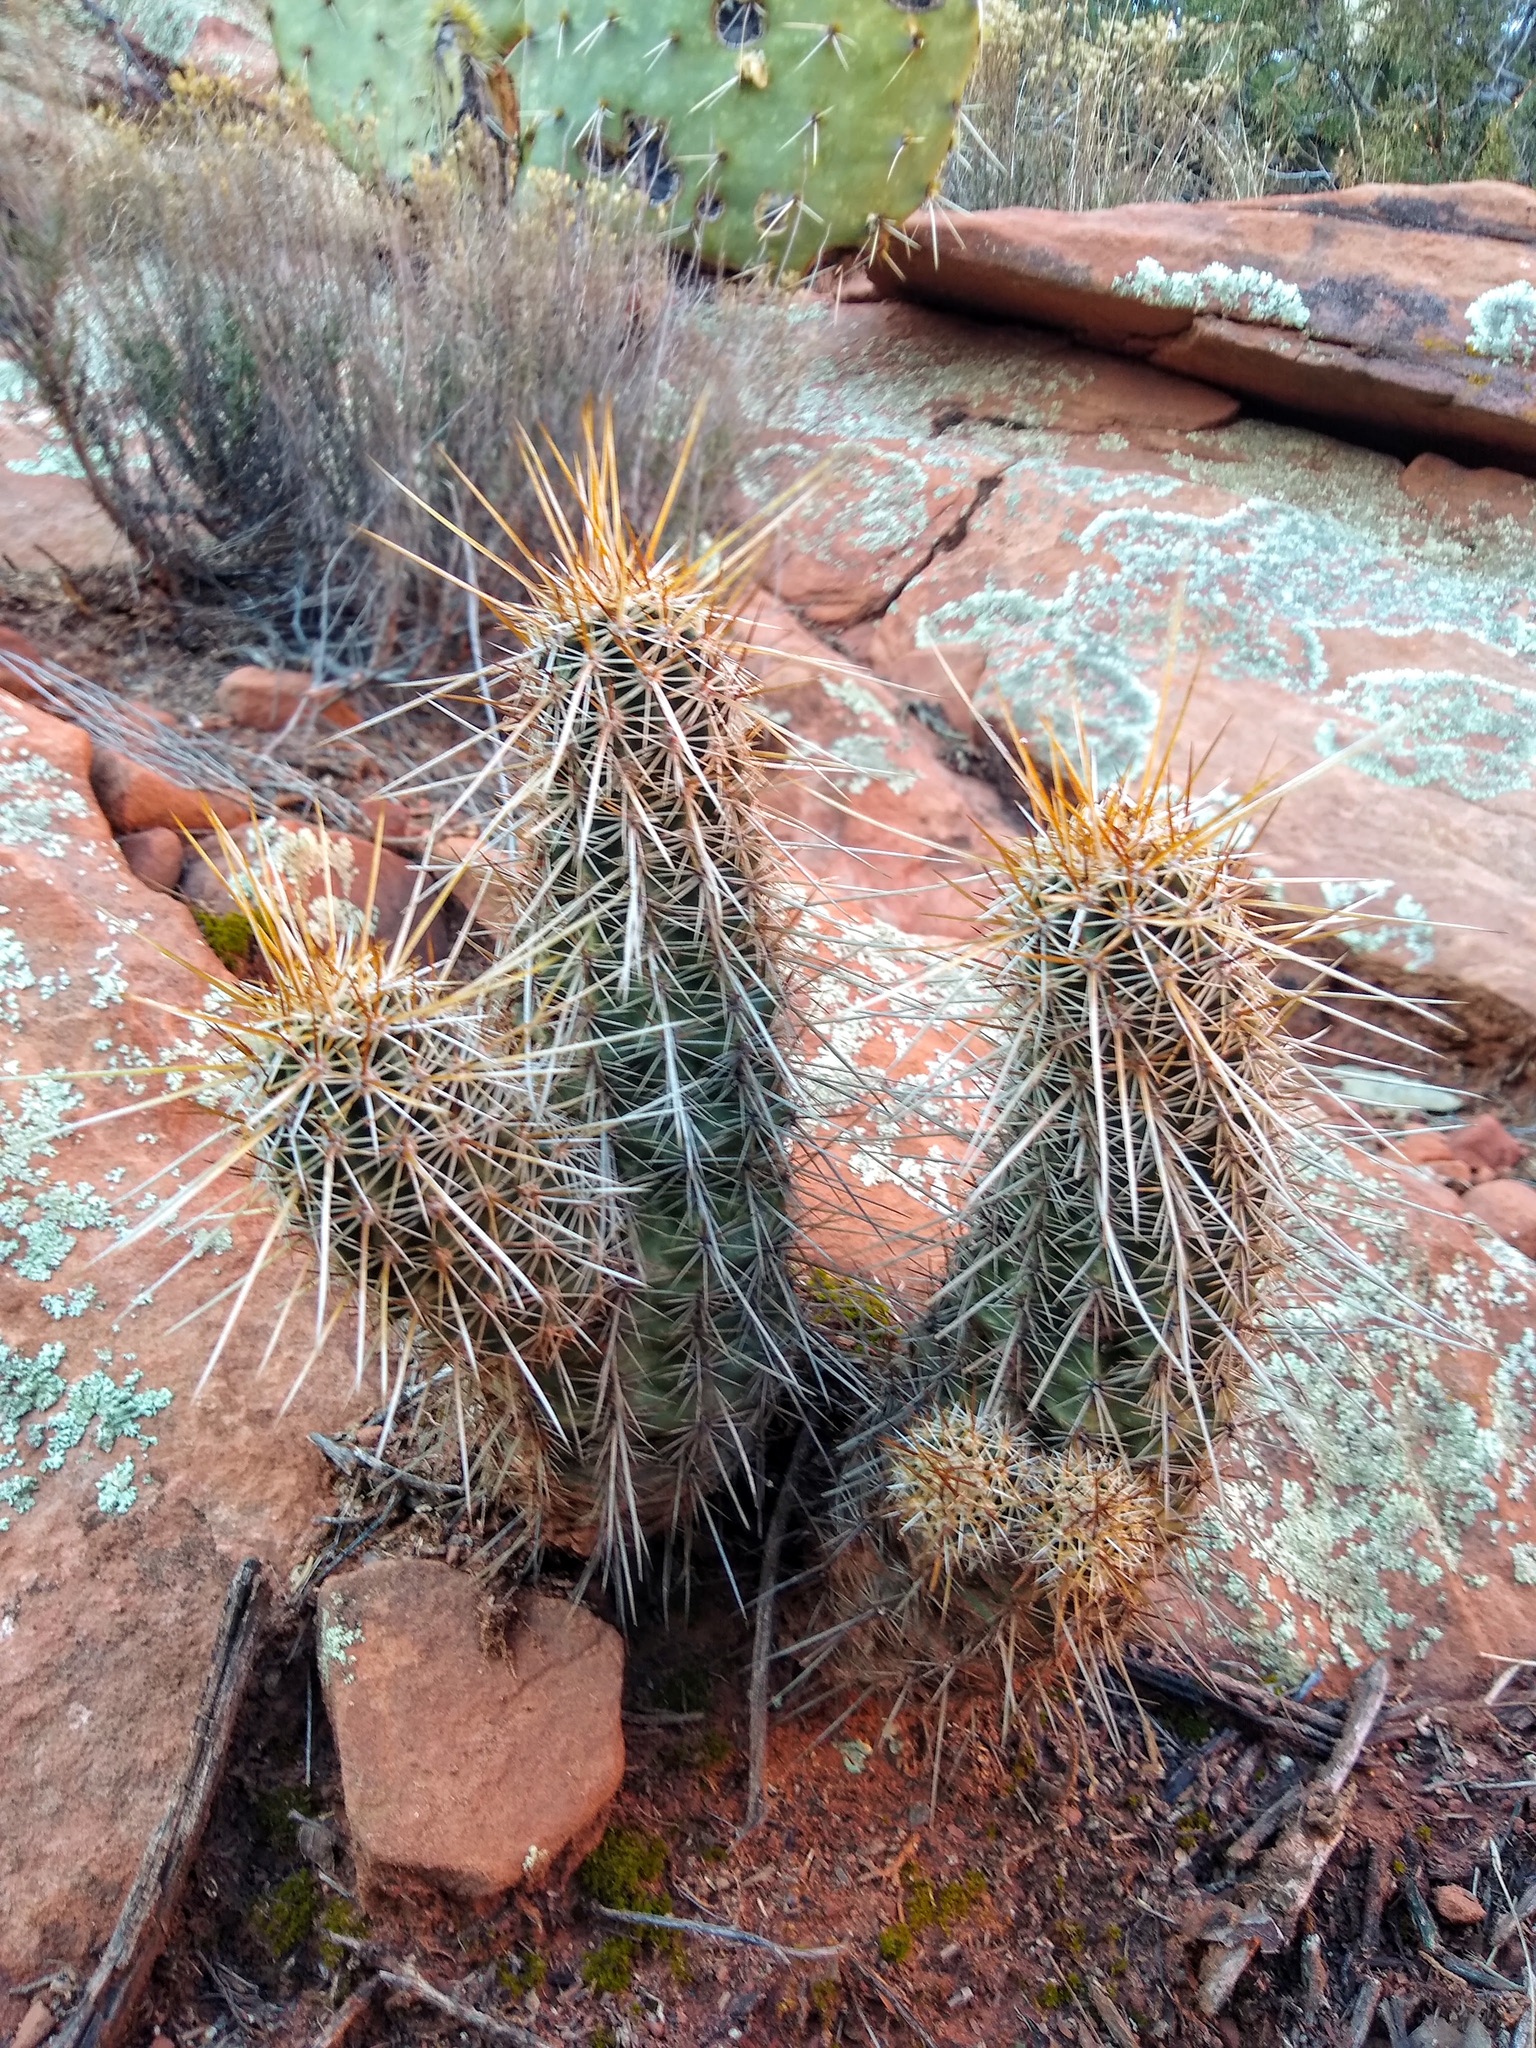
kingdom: Plantae
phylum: Tracheophyta
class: Magnoliopsida
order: Caryophyllales
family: Cactaceae
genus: Echinocereus
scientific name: Echinocereus fasciculatus
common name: Bundle hedgehog
